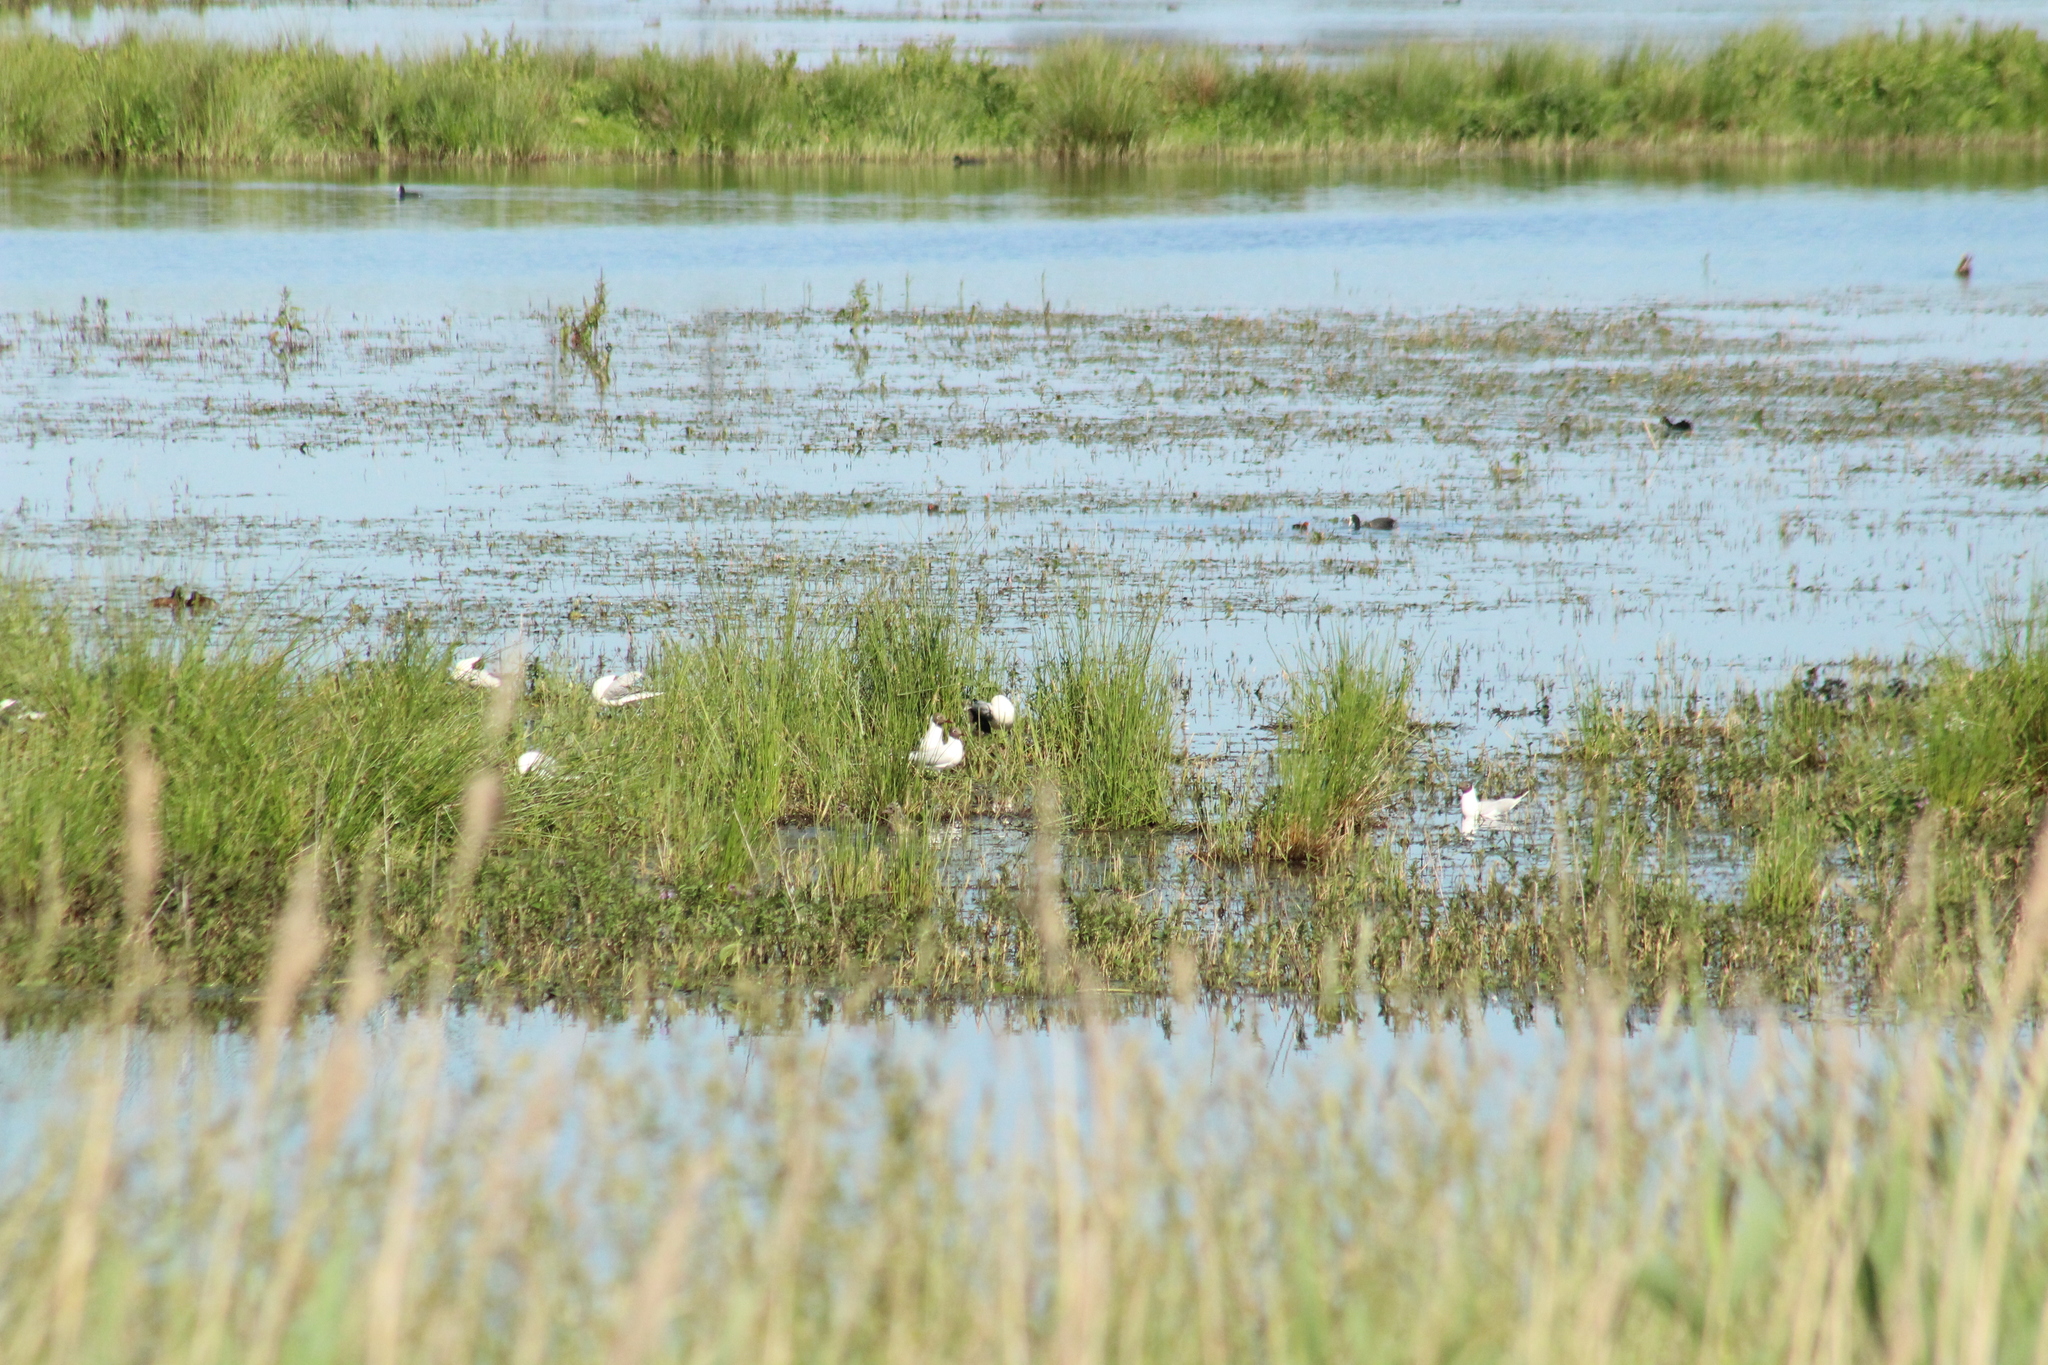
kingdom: Animalia
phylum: Chordata
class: Aves
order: Charadriiformes
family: Laridae
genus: Chroicocephalus
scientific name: Chroicocephalus ridibundus
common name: Black-headed gull
